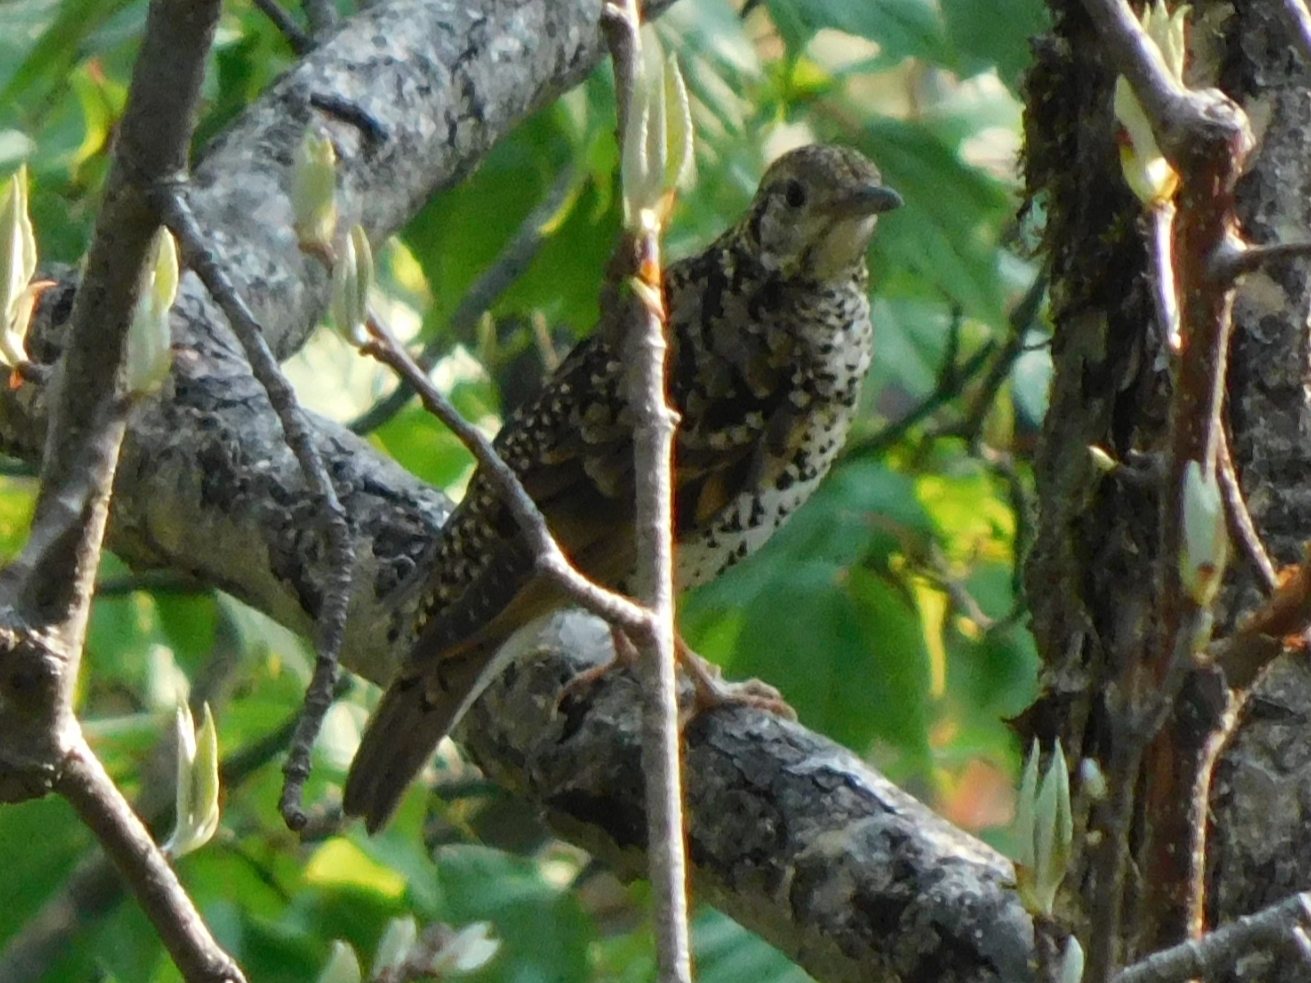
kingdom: Animalia
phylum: Chordata
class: Aves
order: Passeriformes
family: Turdidae
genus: Zoothera
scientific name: Zoothera dauma
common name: Scaly thrush
